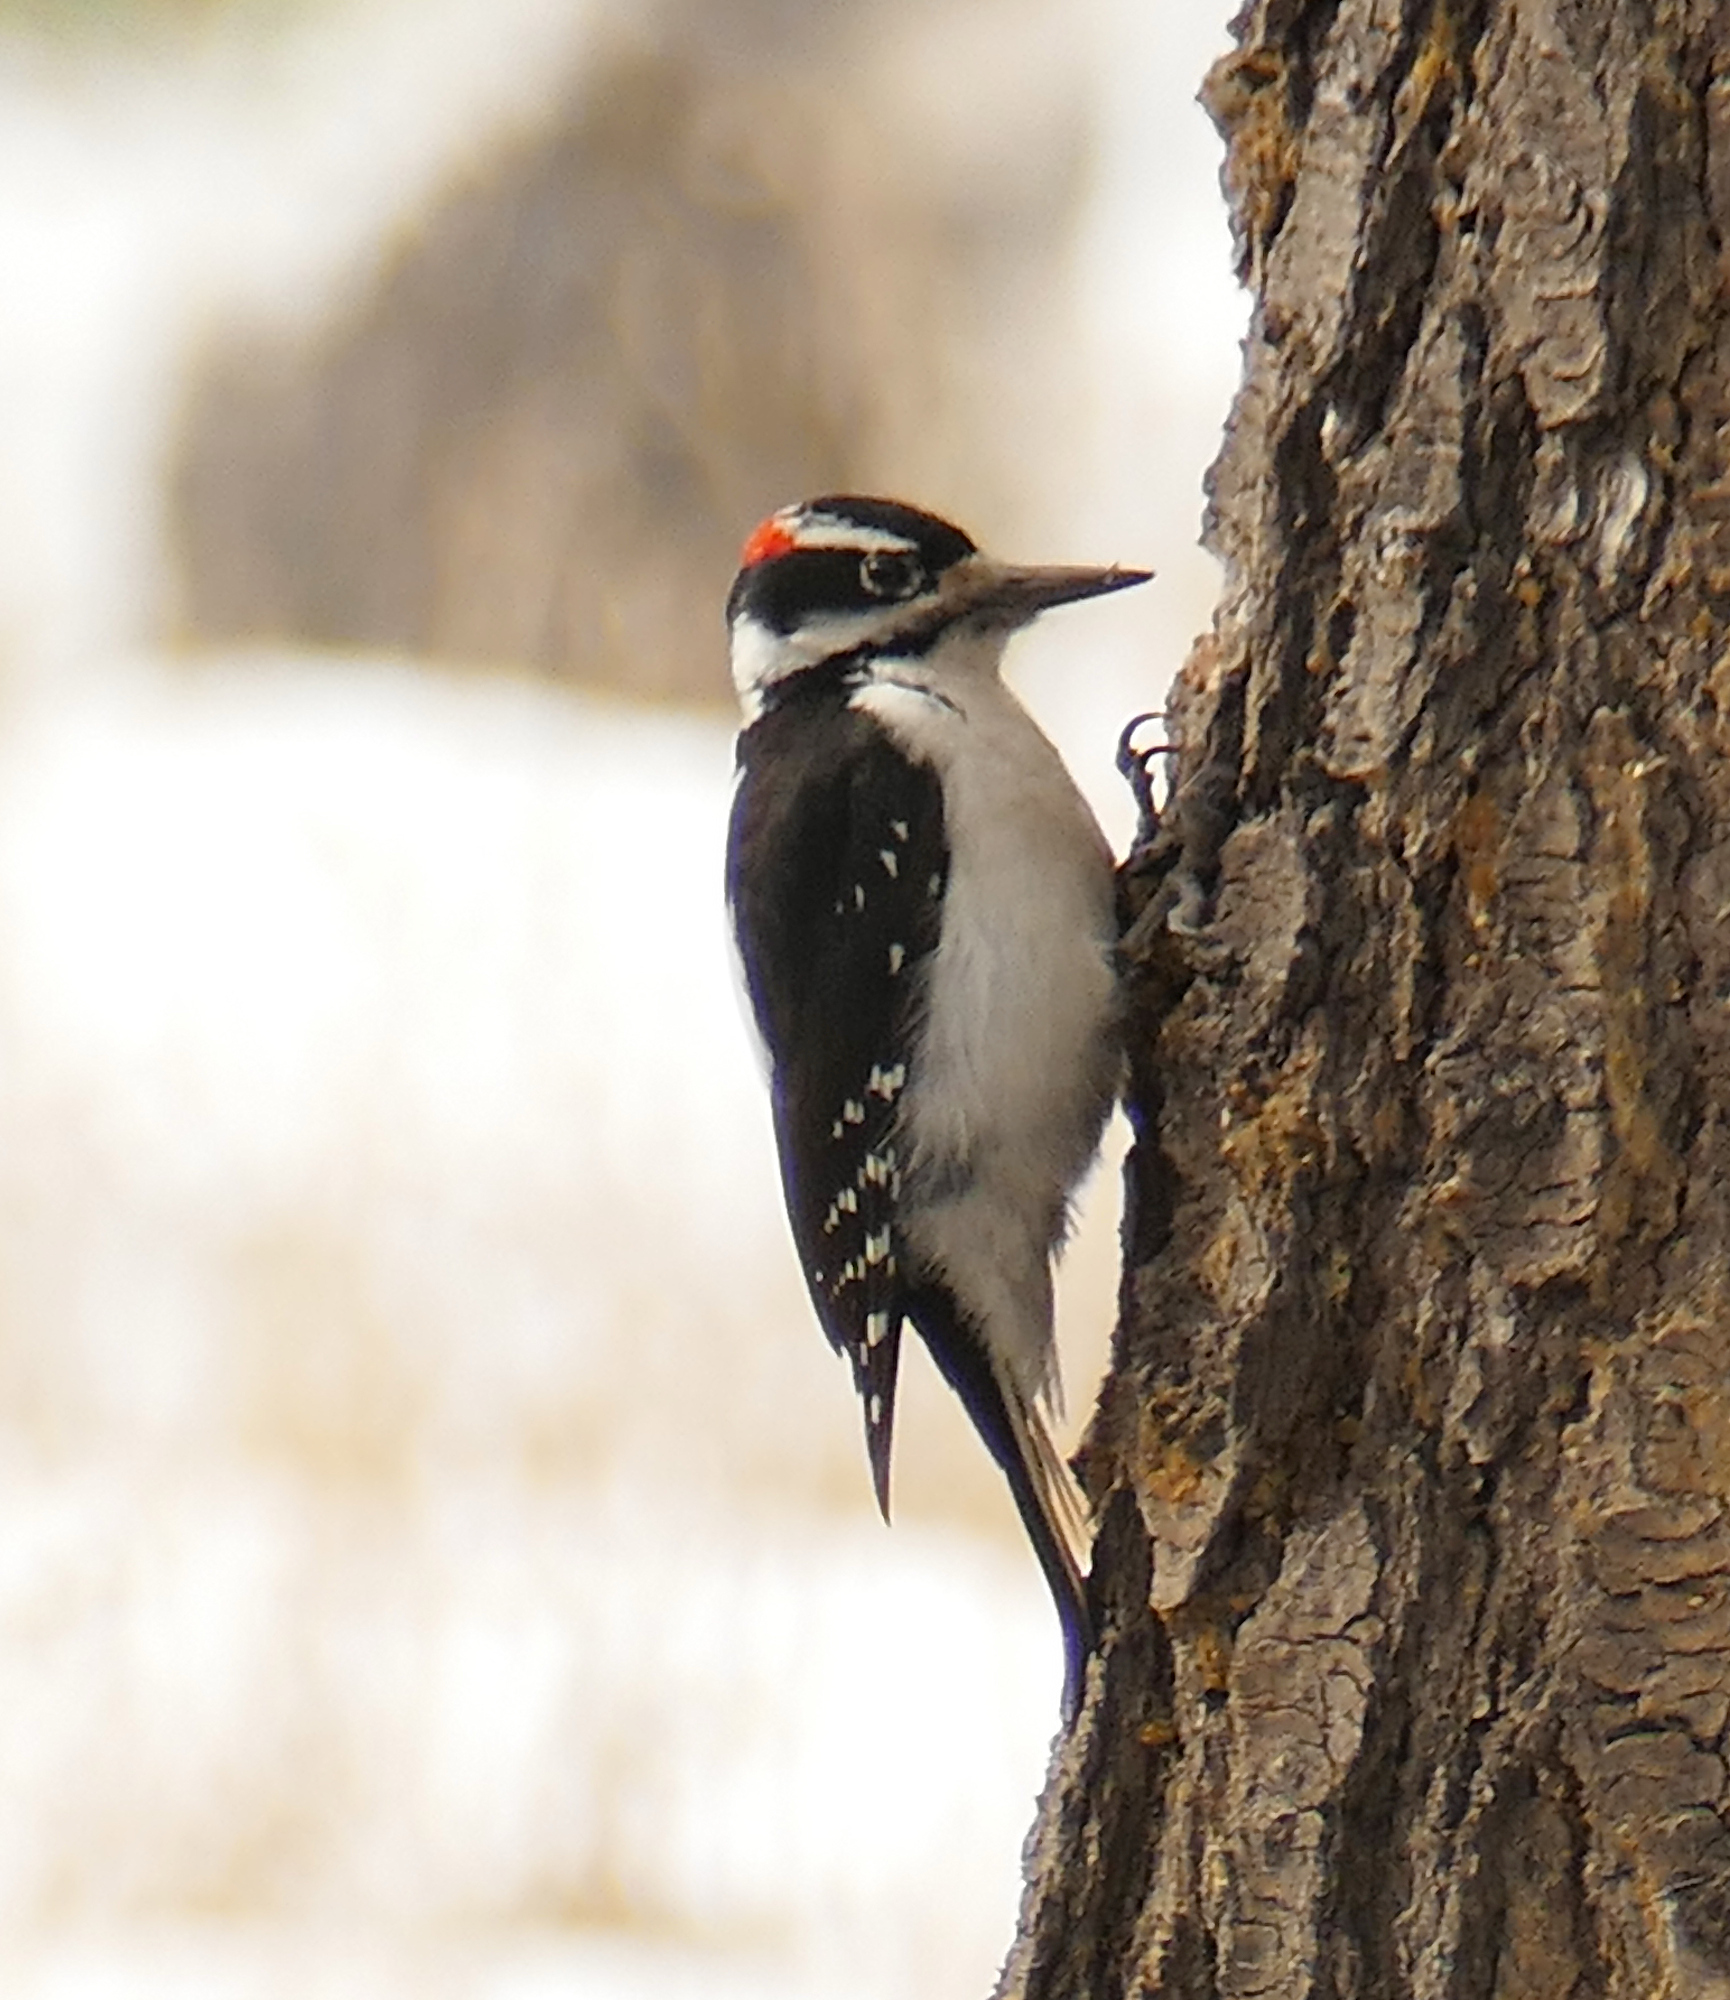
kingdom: Animalia
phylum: Chordata
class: Aves
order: Piciformes
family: Picidae
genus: Leuconotopicus
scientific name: Leuconotopicus villosus
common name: Hairy woodpecker
